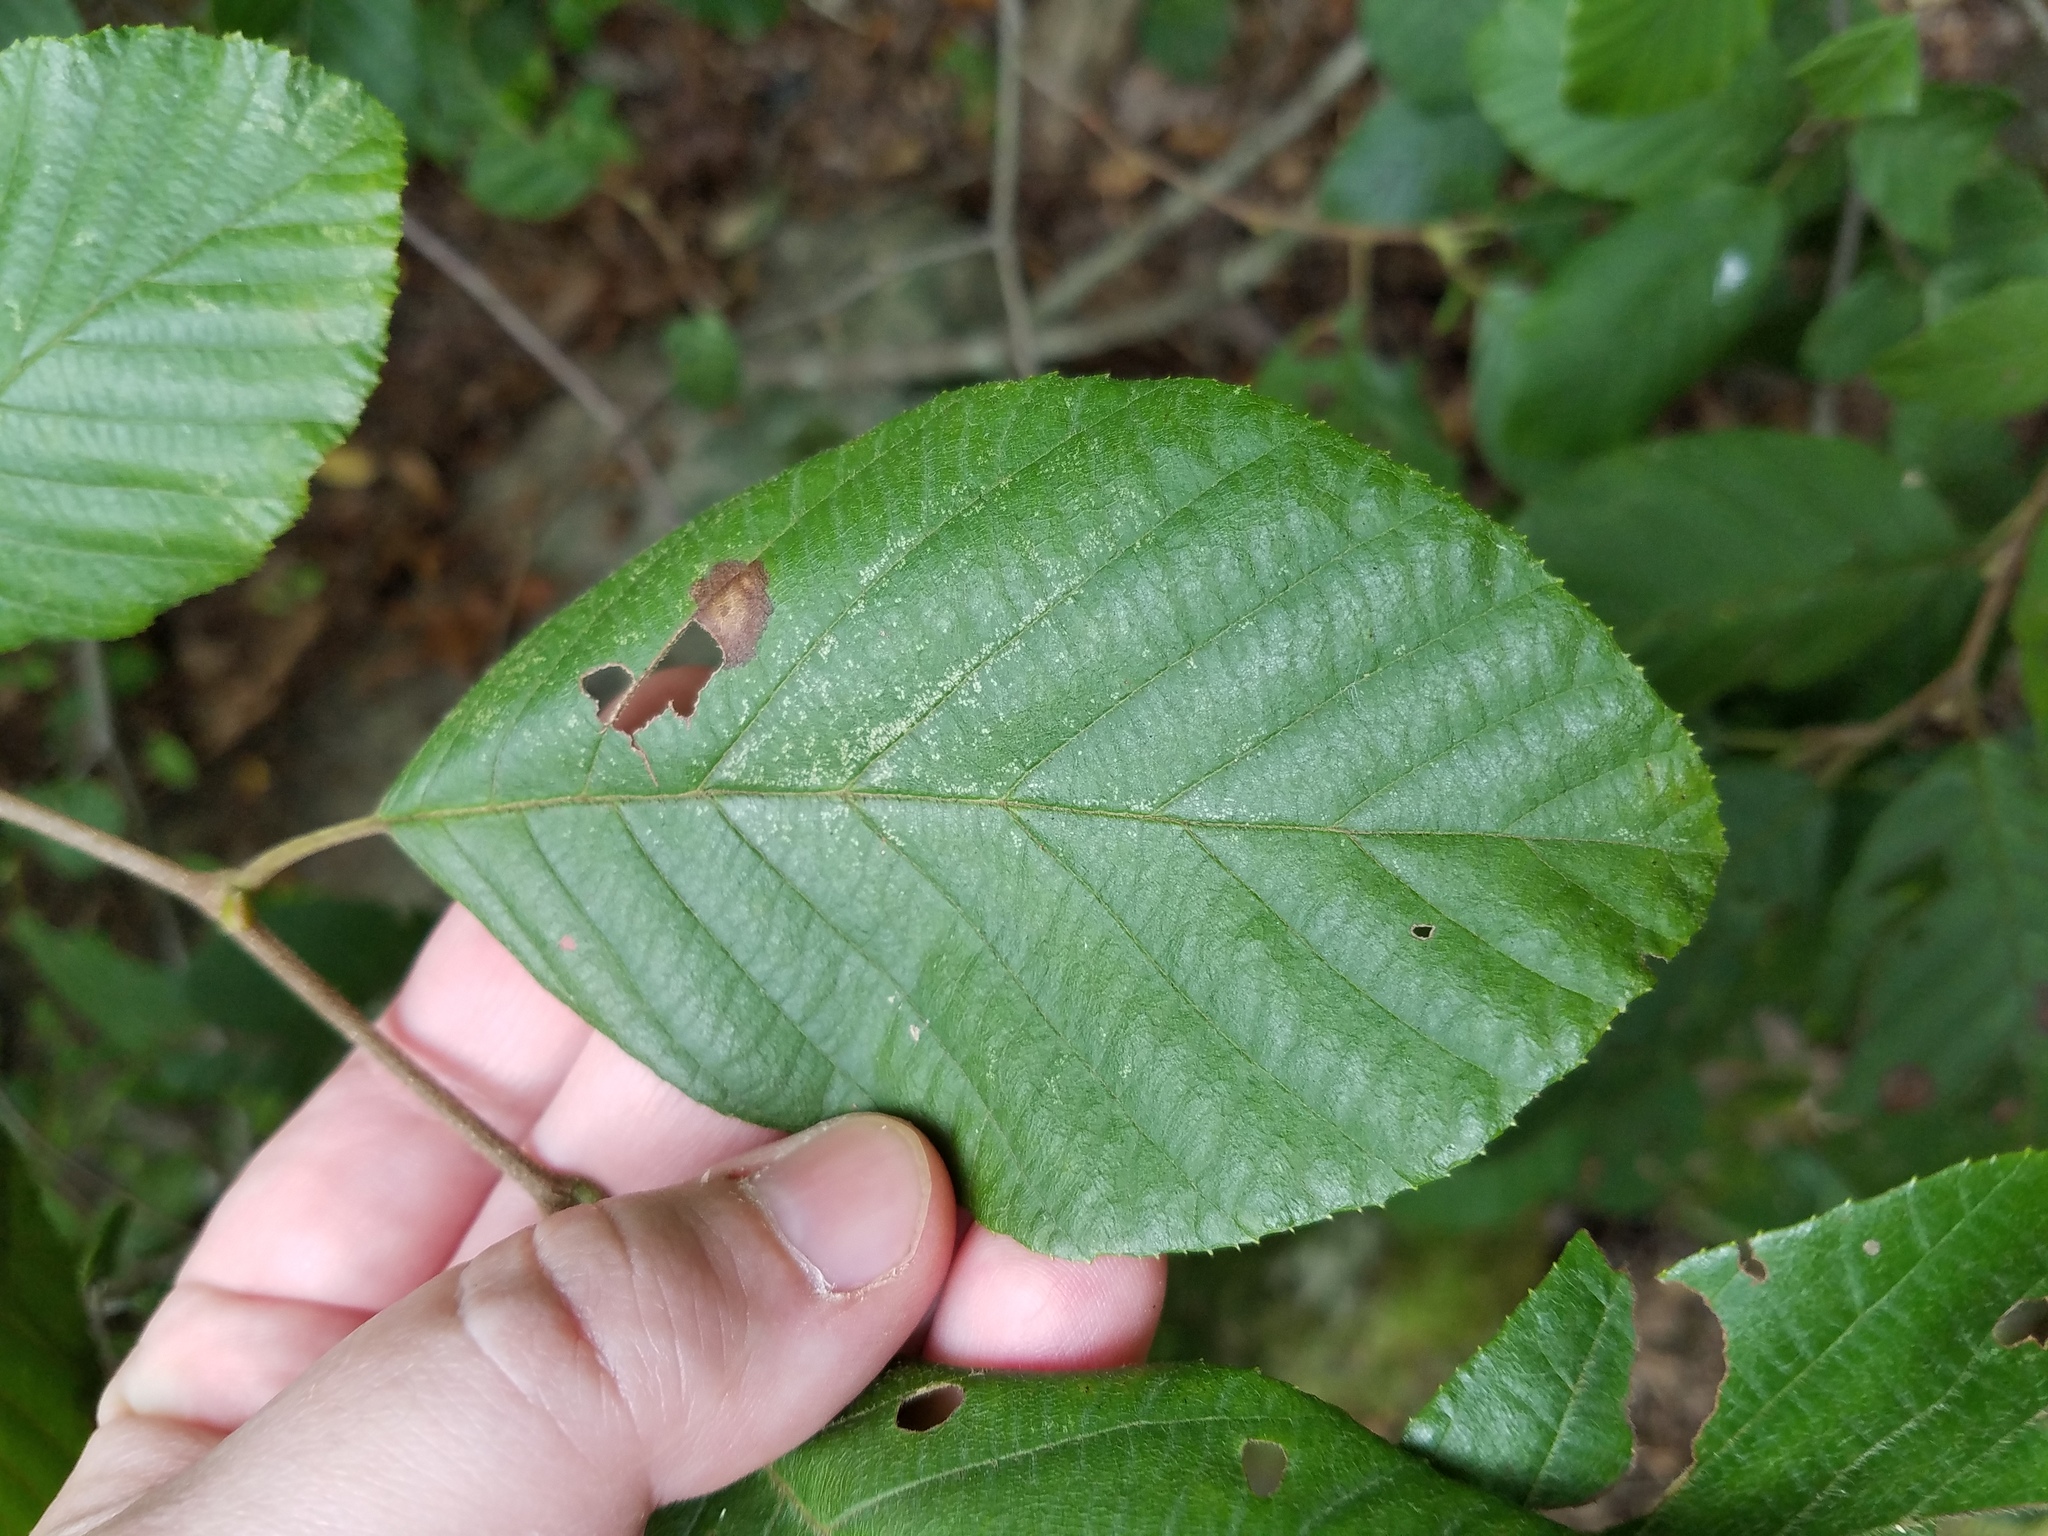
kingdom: Plantae
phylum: Tracheophyta
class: Magnoliopsida
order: Fagales
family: Betulaceae
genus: Alnus
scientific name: Alnus serrulata
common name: Hazel alder
